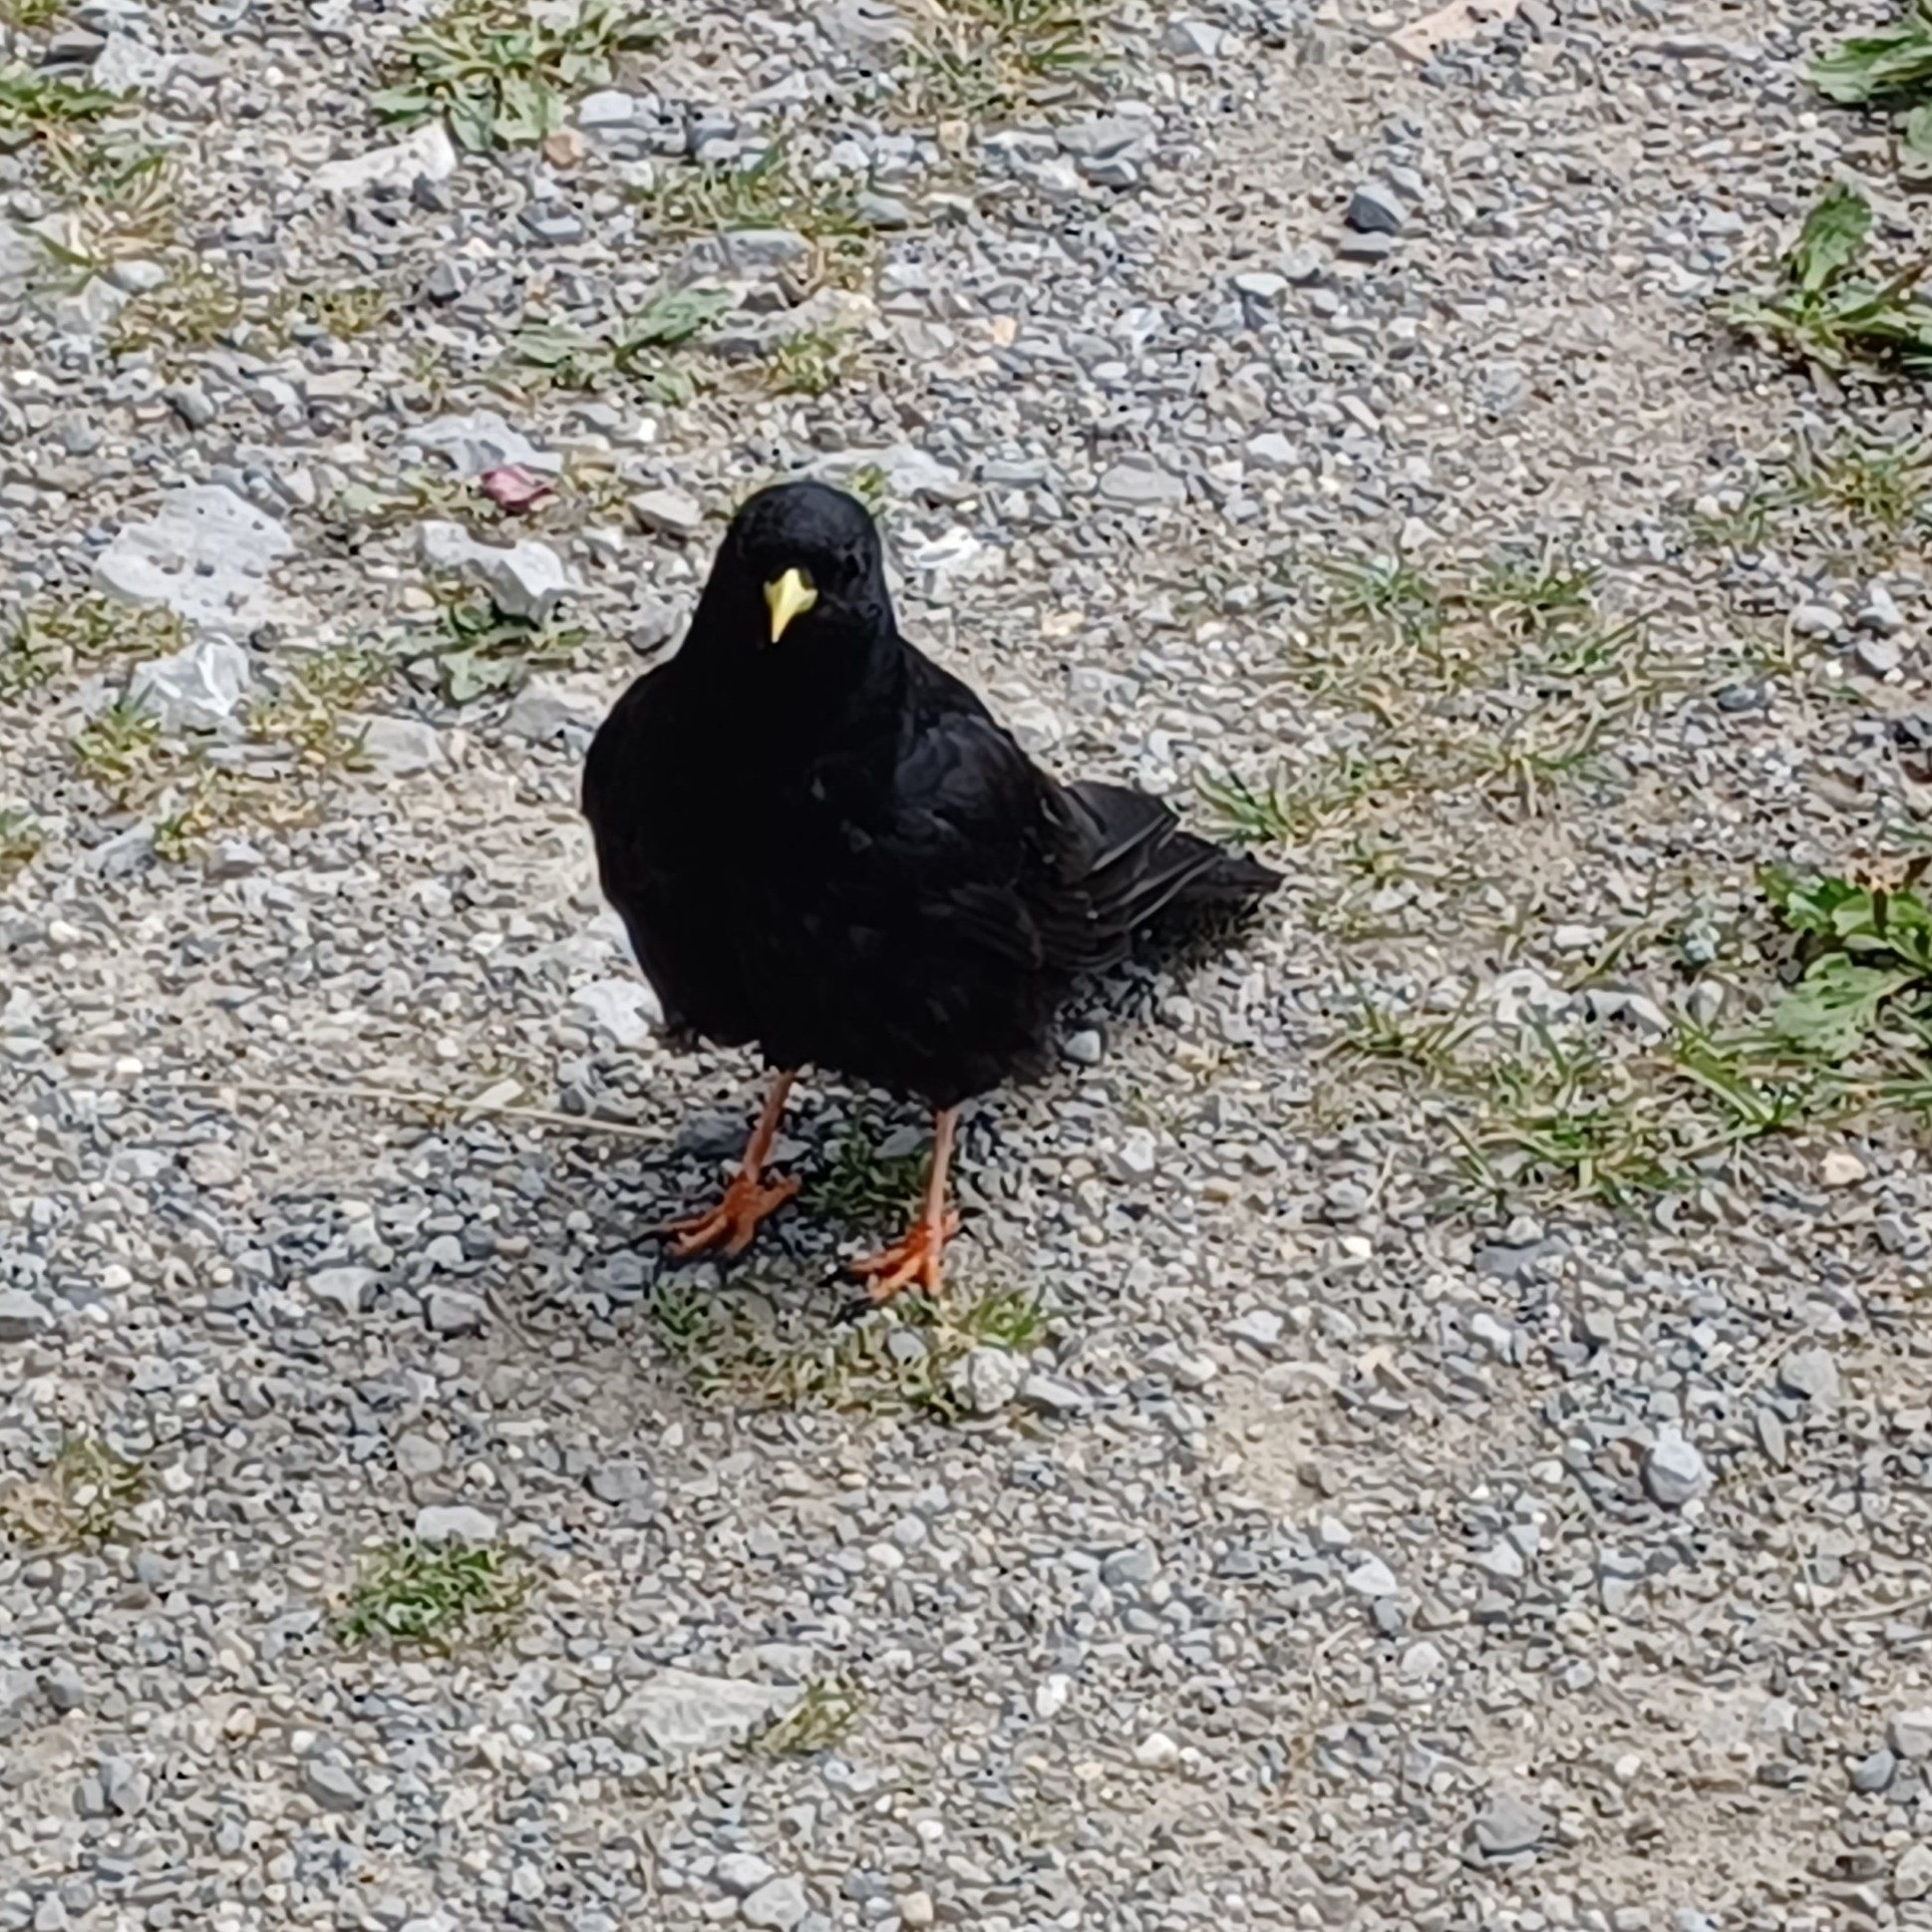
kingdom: Animalia
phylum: Chordata
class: Aves
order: Passeriformes
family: Corvidae
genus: Pyrrhocorax
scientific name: Pyrrhocorax graculus
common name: Alpine chough
